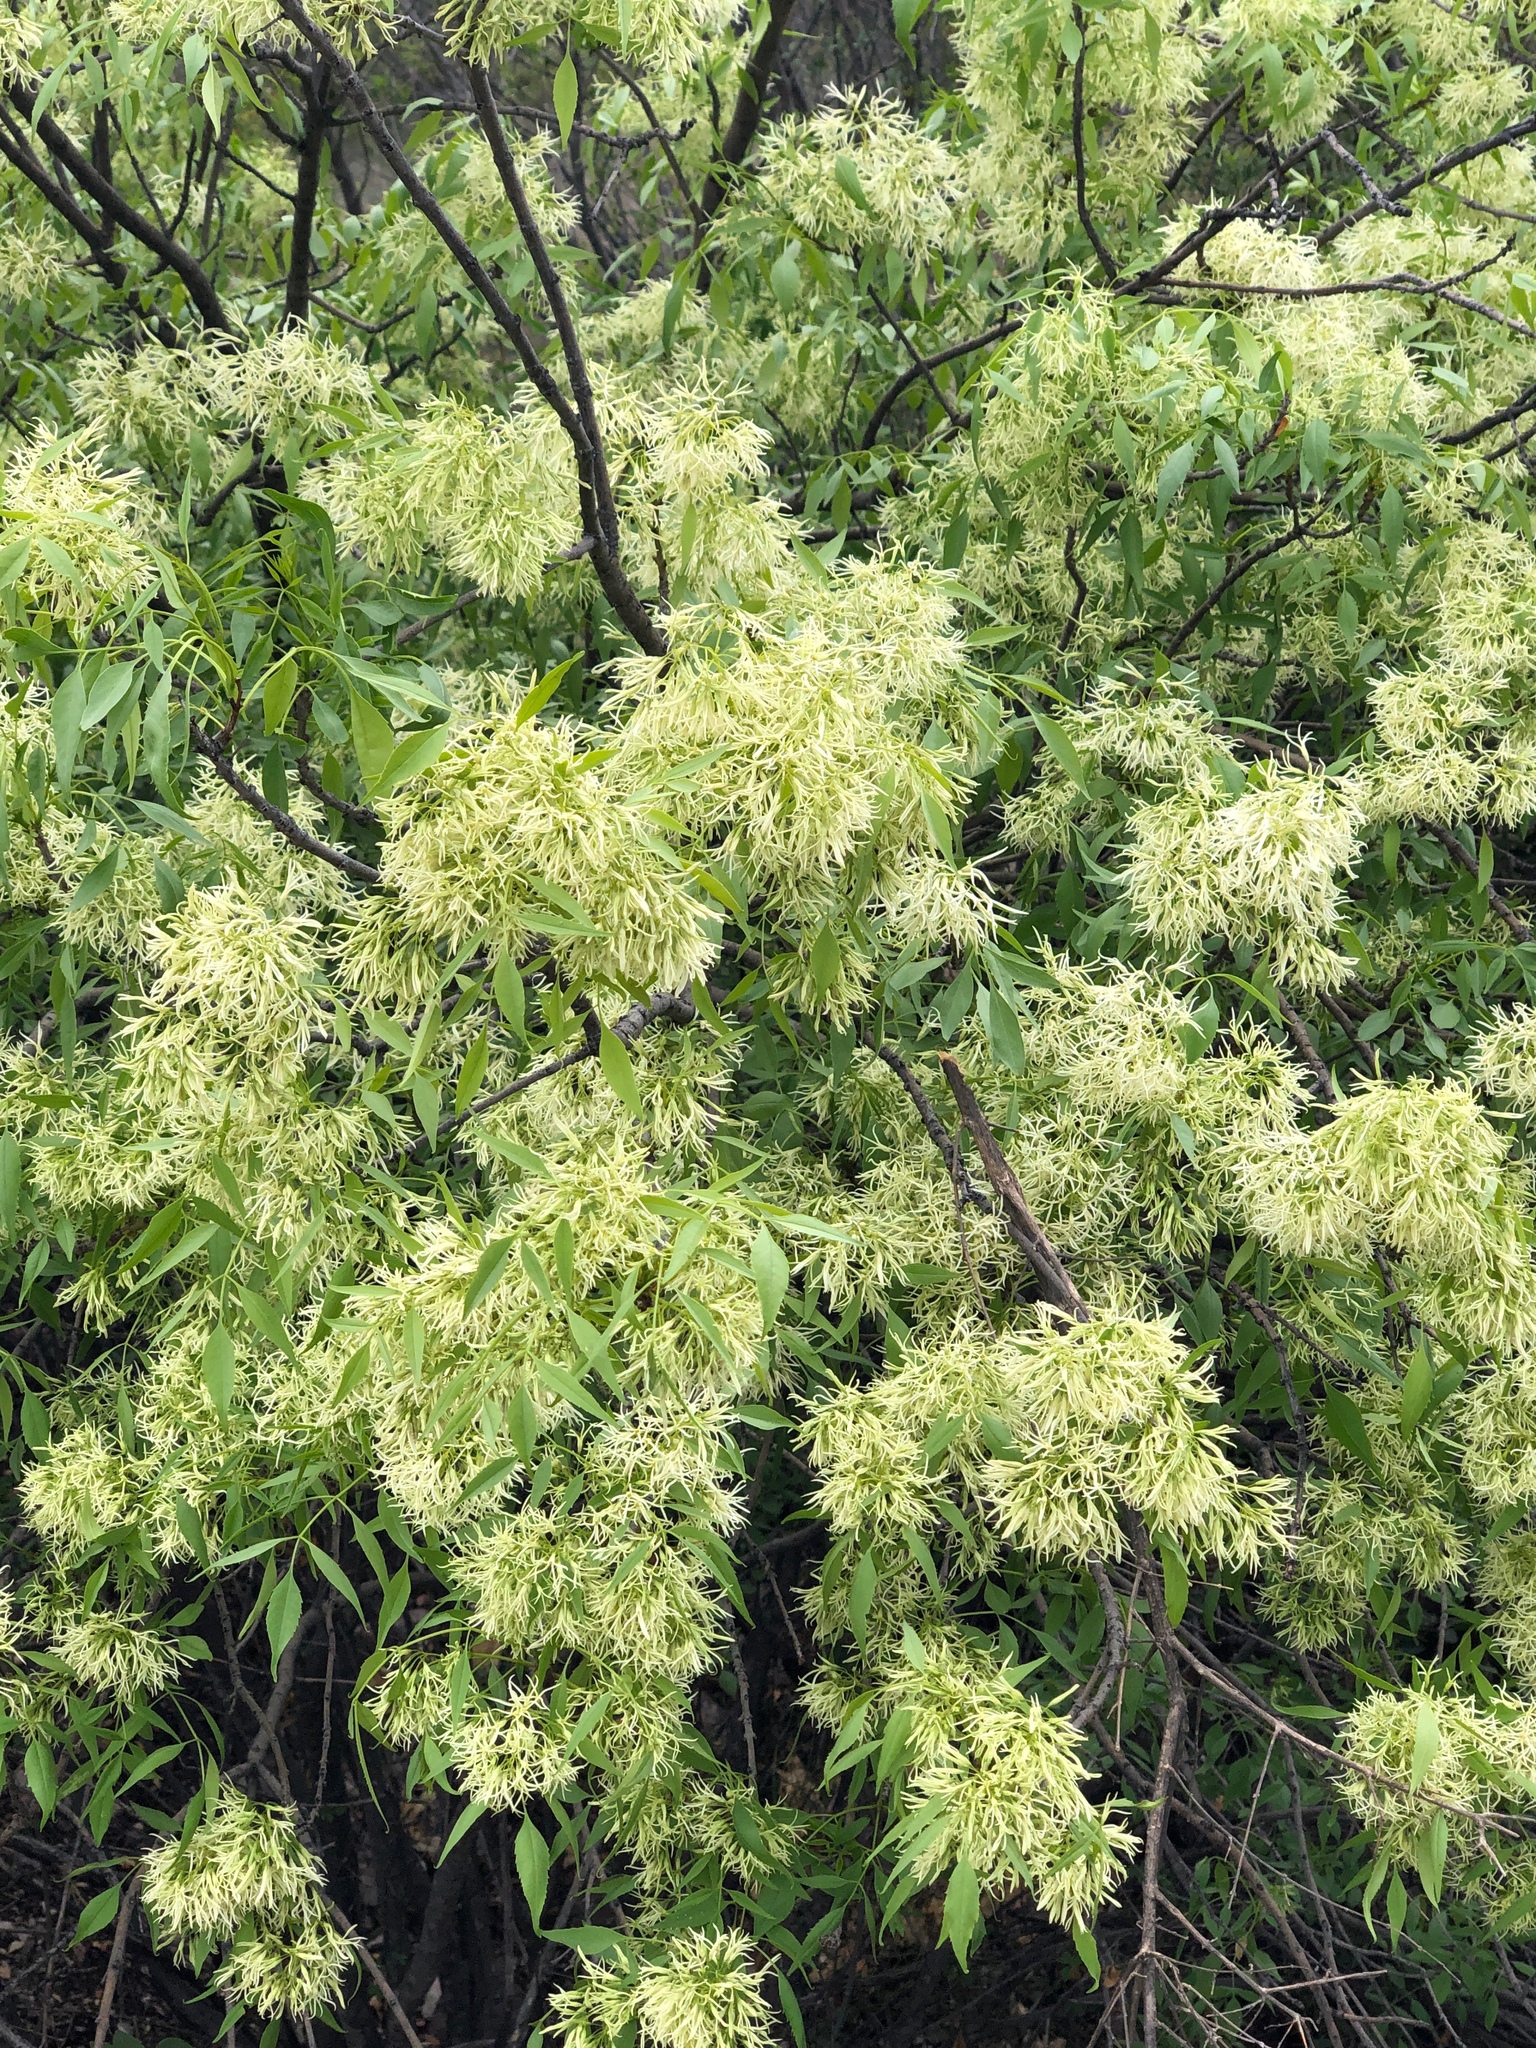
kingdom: Plantae
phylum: Tracheophyta
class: Magnoliopsida
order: Lamiales
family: Oleaceae
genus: Fraxinus
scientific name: Fraxinus cuspidata
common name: Fragrant ash
